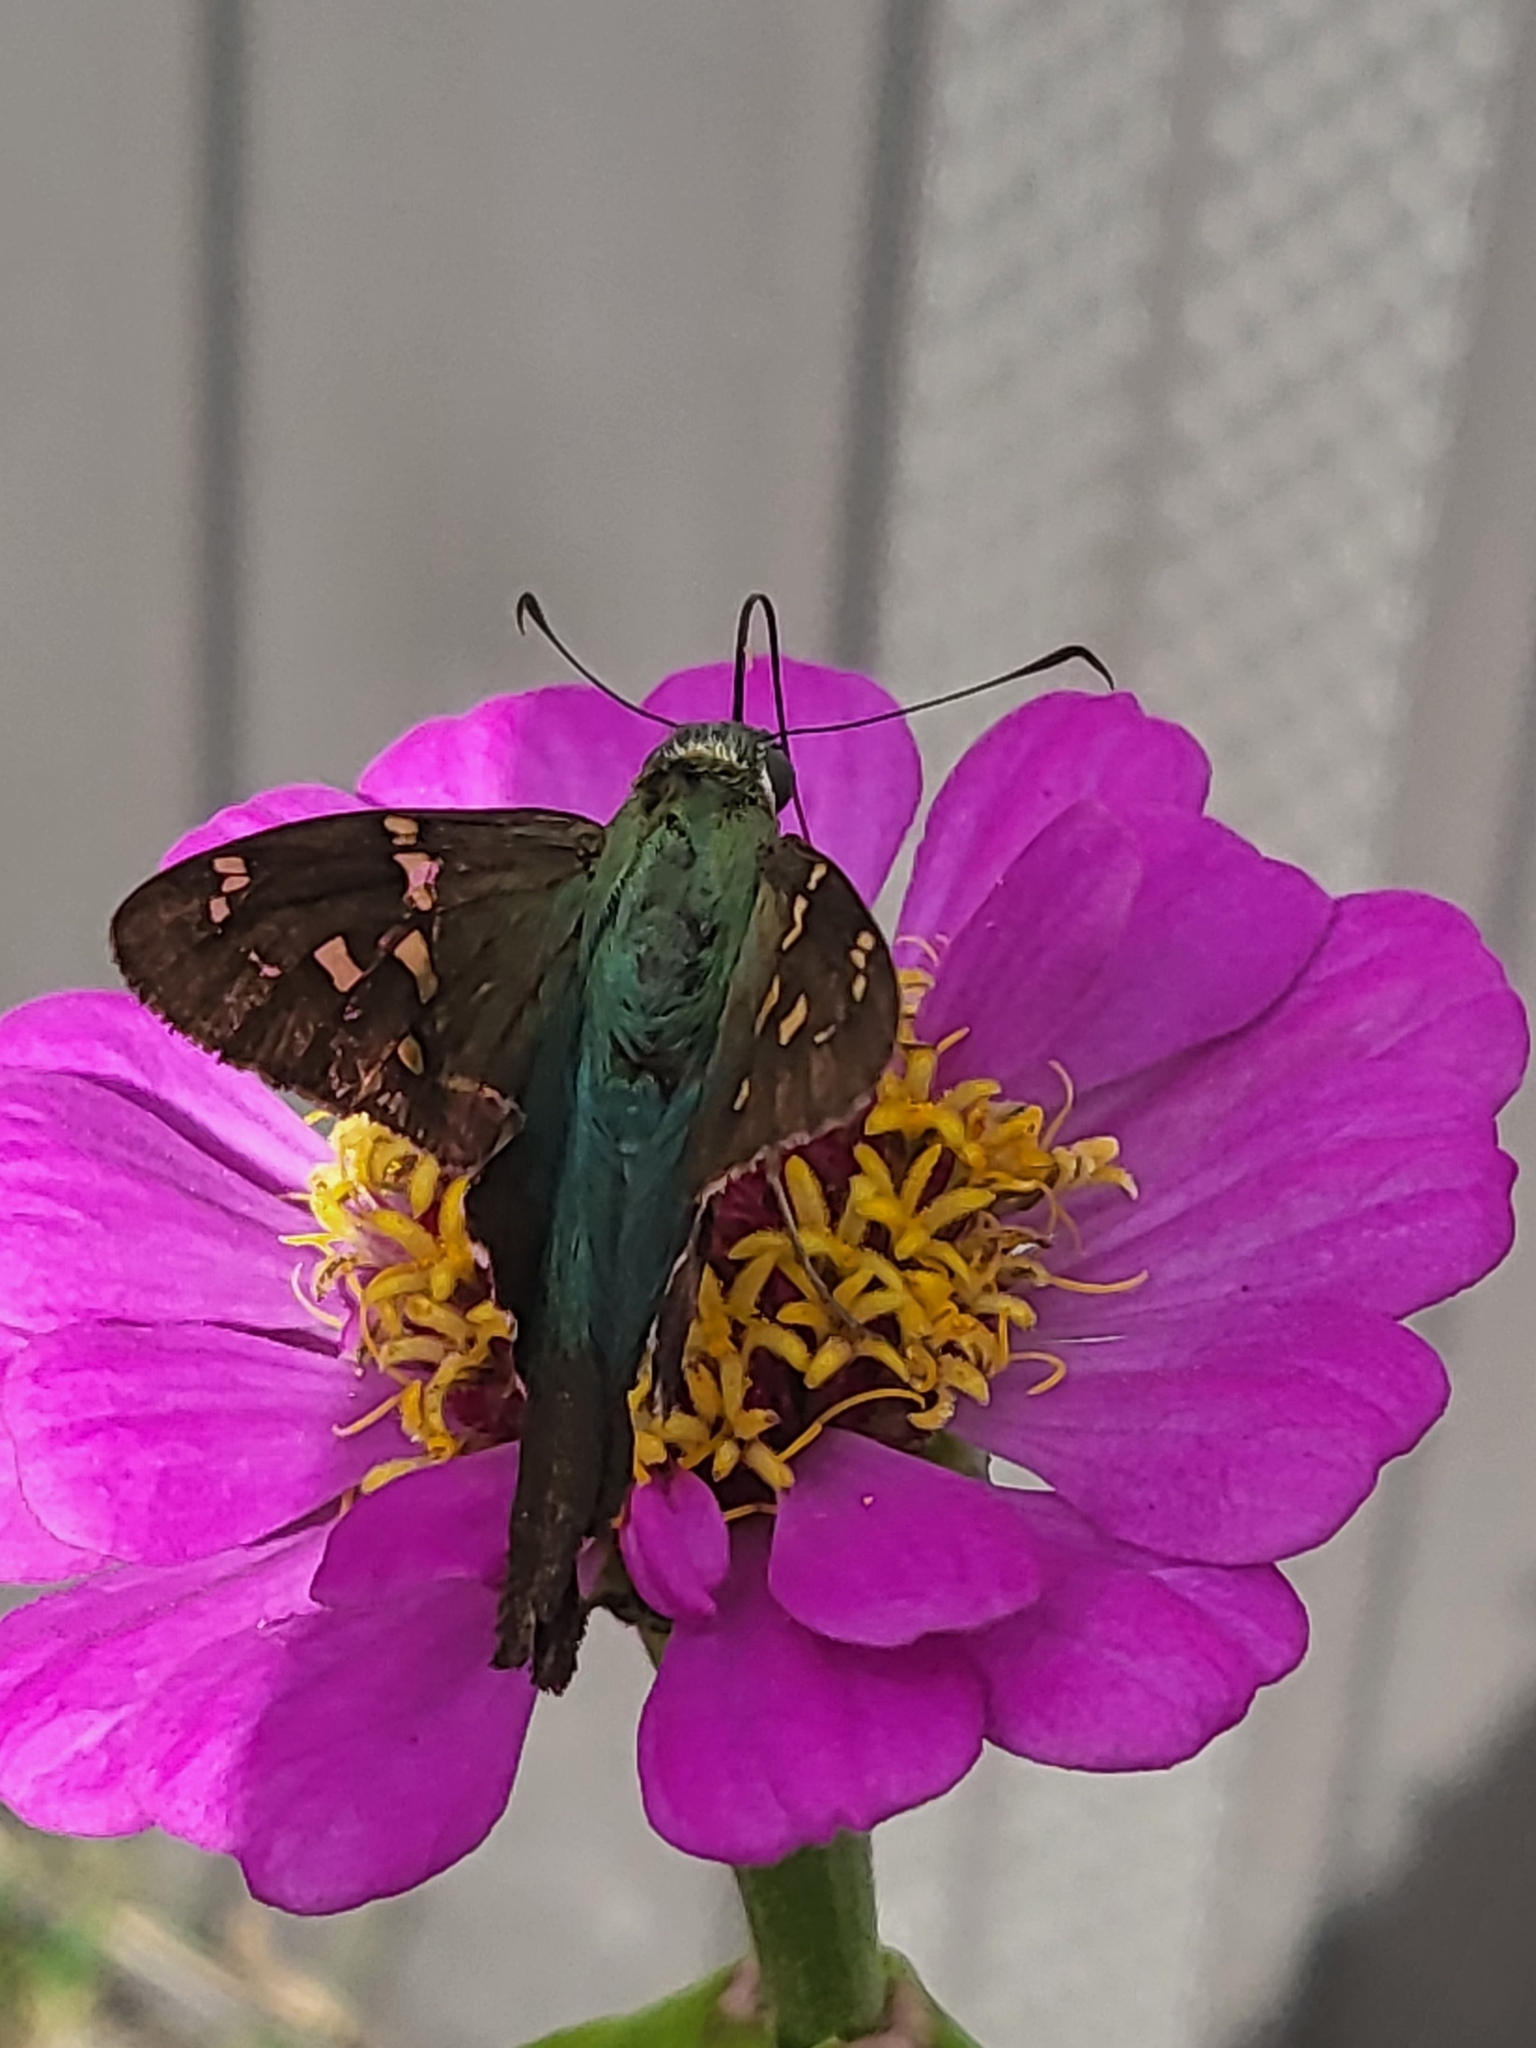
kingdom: Animalia
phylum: Arthropoda
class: Insecta
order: Lepidoptera
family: Hesperiidae
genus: Urbanus
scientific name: Urbanus proteus
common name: Long-tailed skipper
